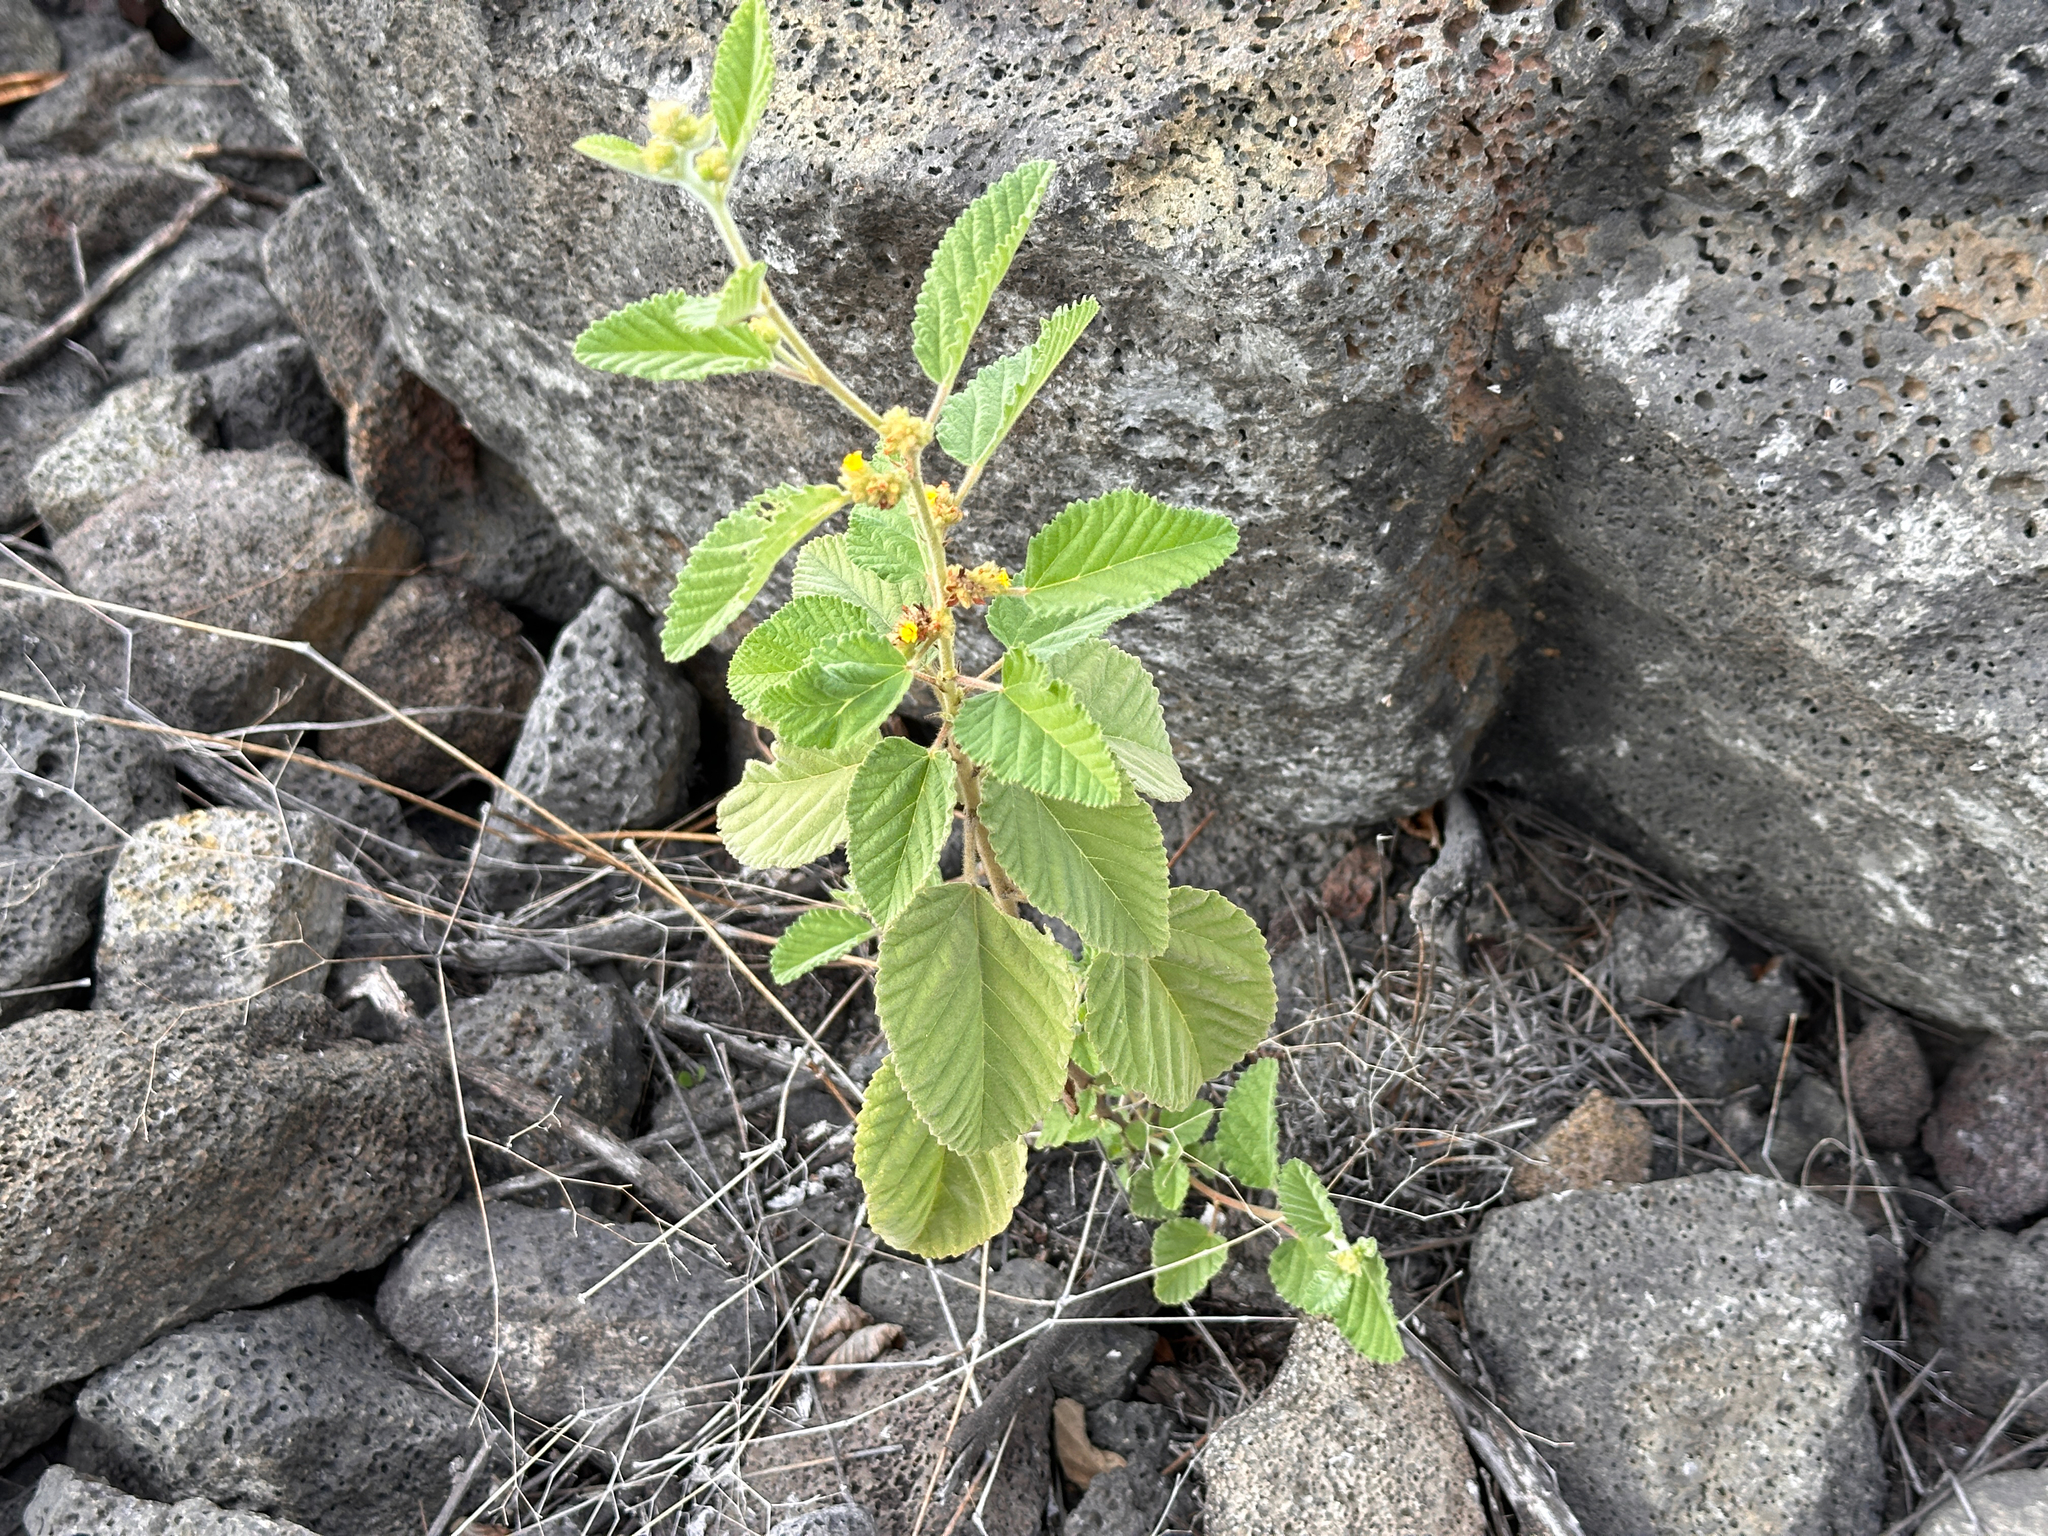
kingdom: Plantae
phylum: Tracheophyta
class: Magnoliopsida
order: Malvales
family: Malvaceae
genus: Waltheria
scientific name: Waltheria indica
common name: Leather-coat
